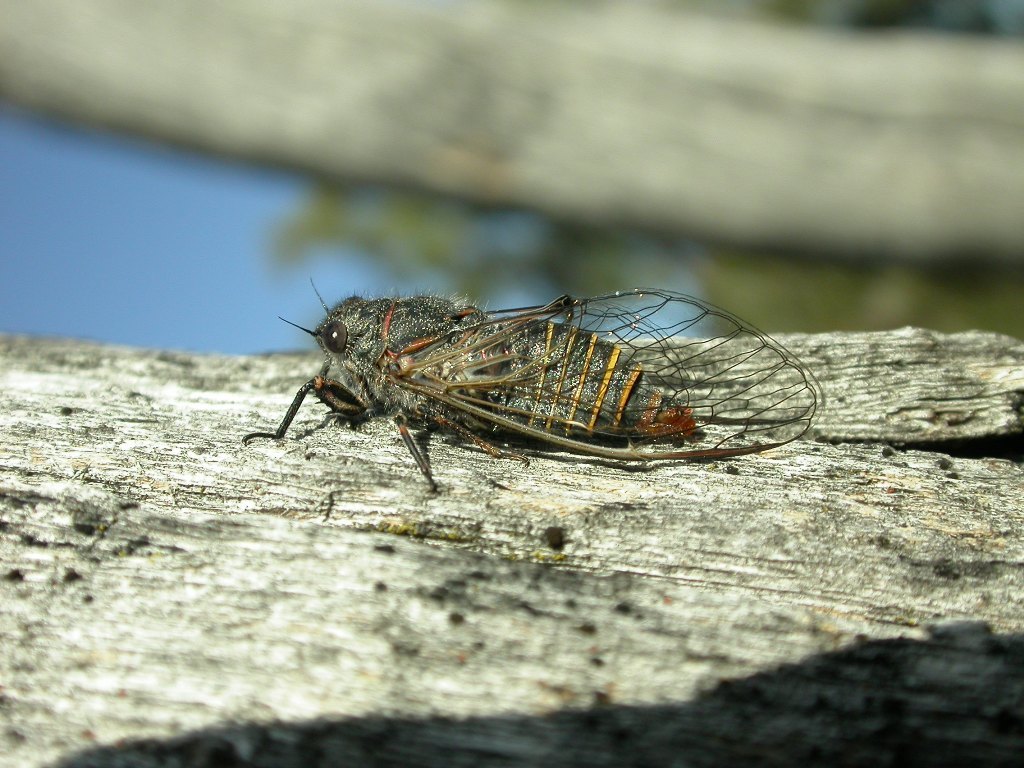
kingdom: Animalia
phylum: Arthropoda
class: Insecta
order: Hemiptera
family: Cicadidae
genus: Atrapsalta
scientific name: Atrapsalta furcilla
